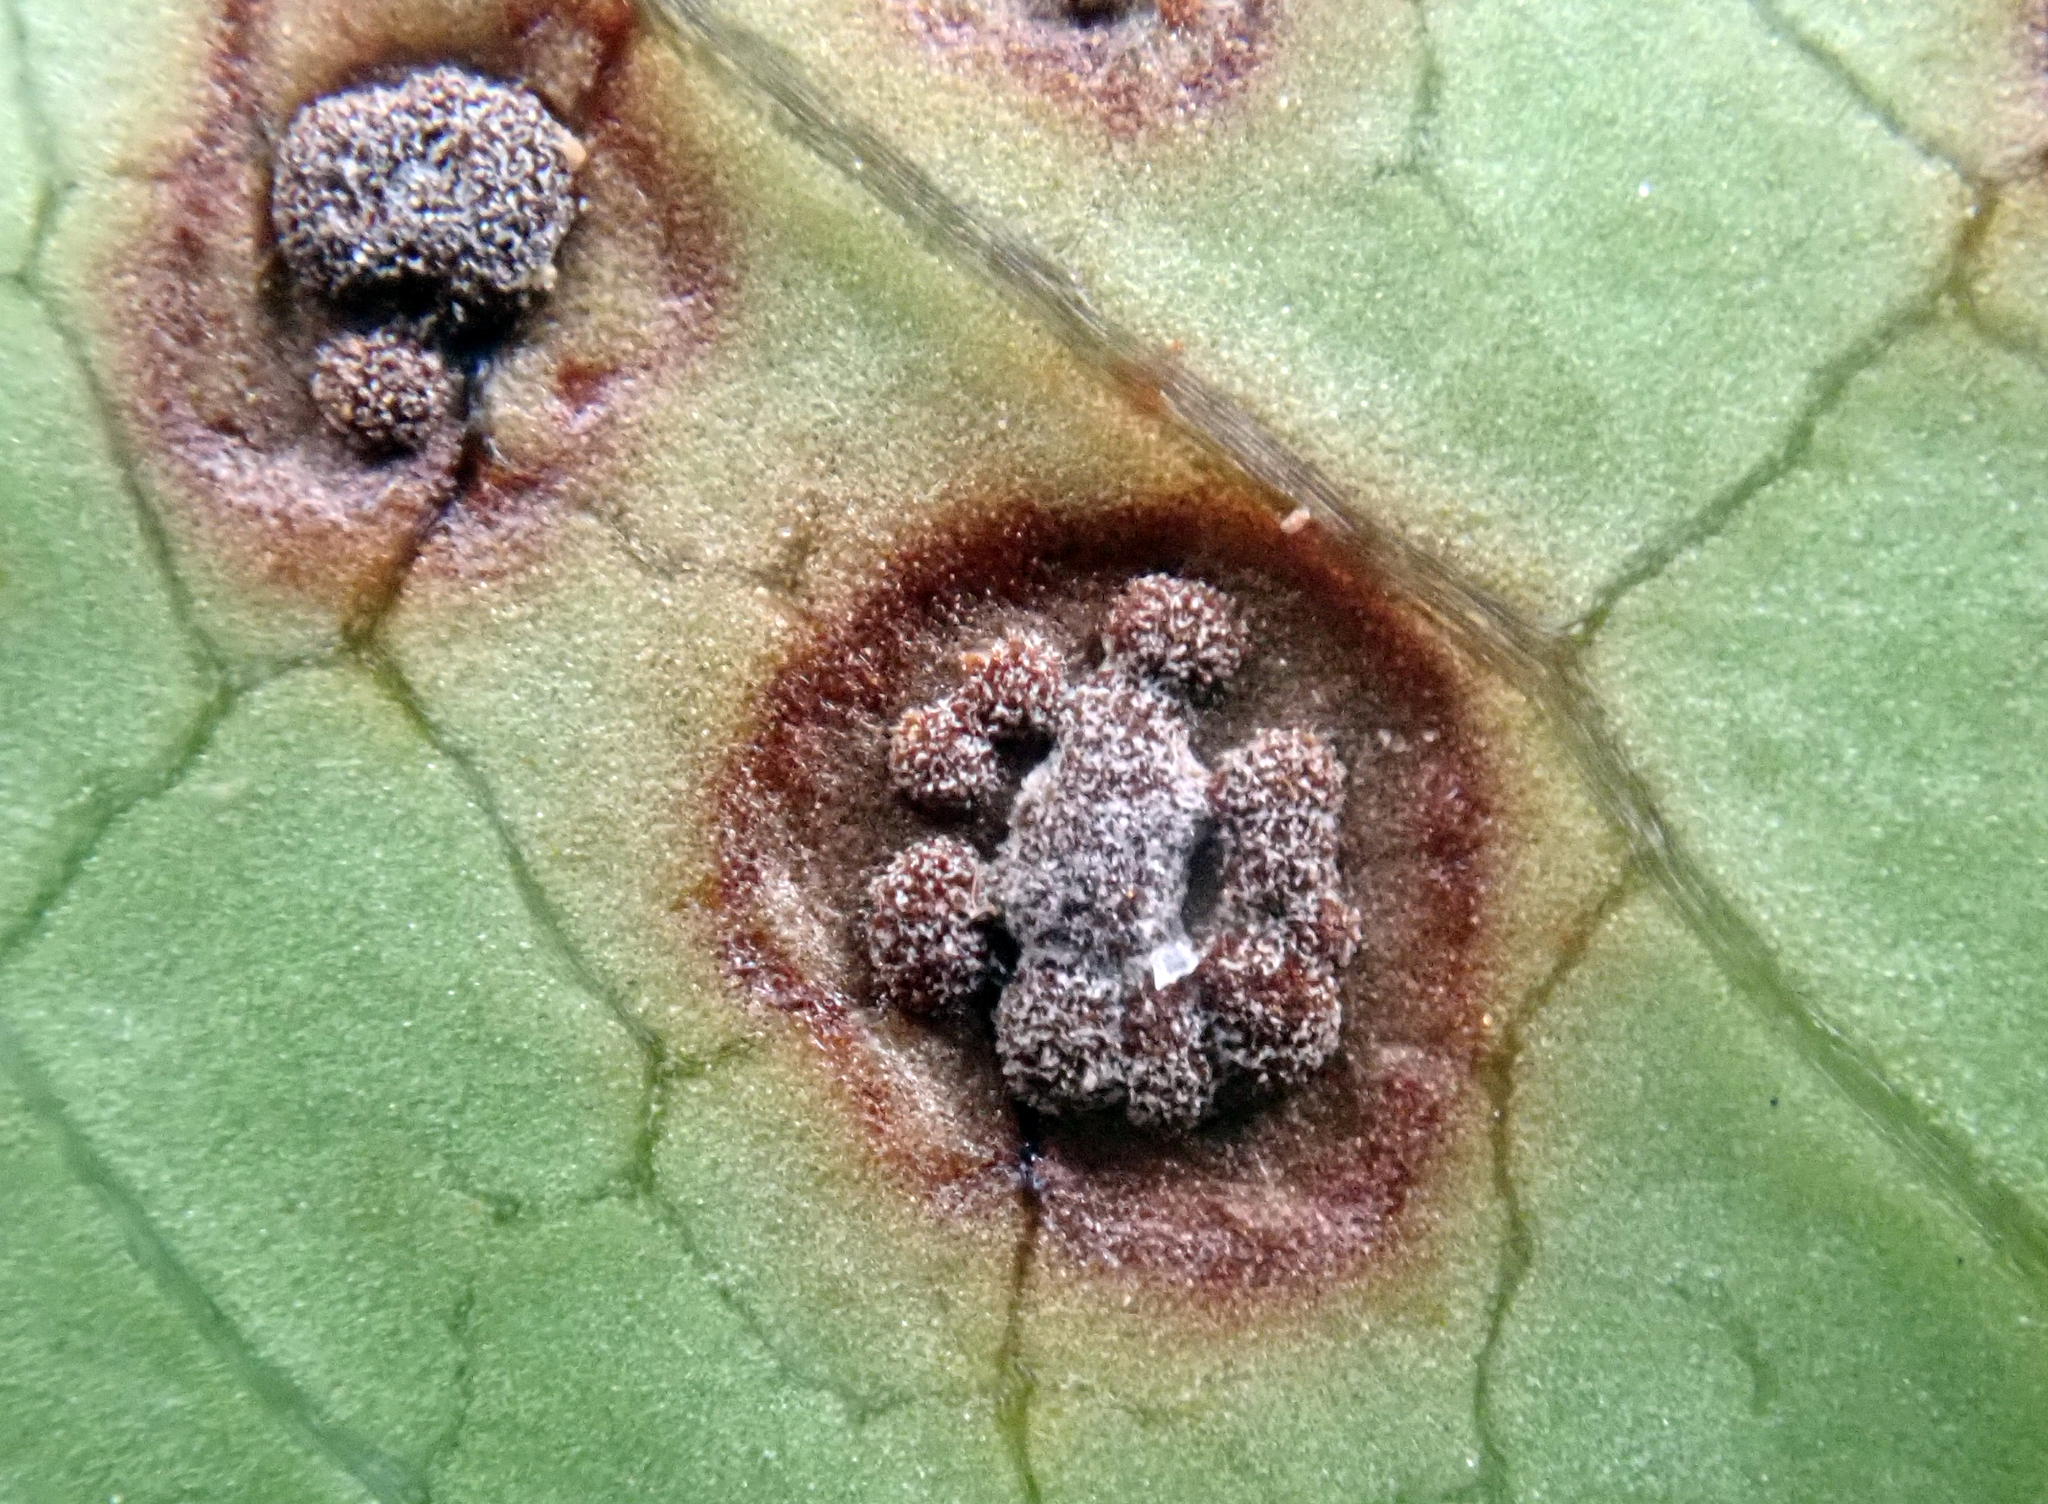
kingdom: Fungi
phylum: Basidiomycota
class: Pucciniomycetes
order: Pucciniales
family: Pucciniaceae
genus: Puccinia
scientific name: Puccinia coprosmae
